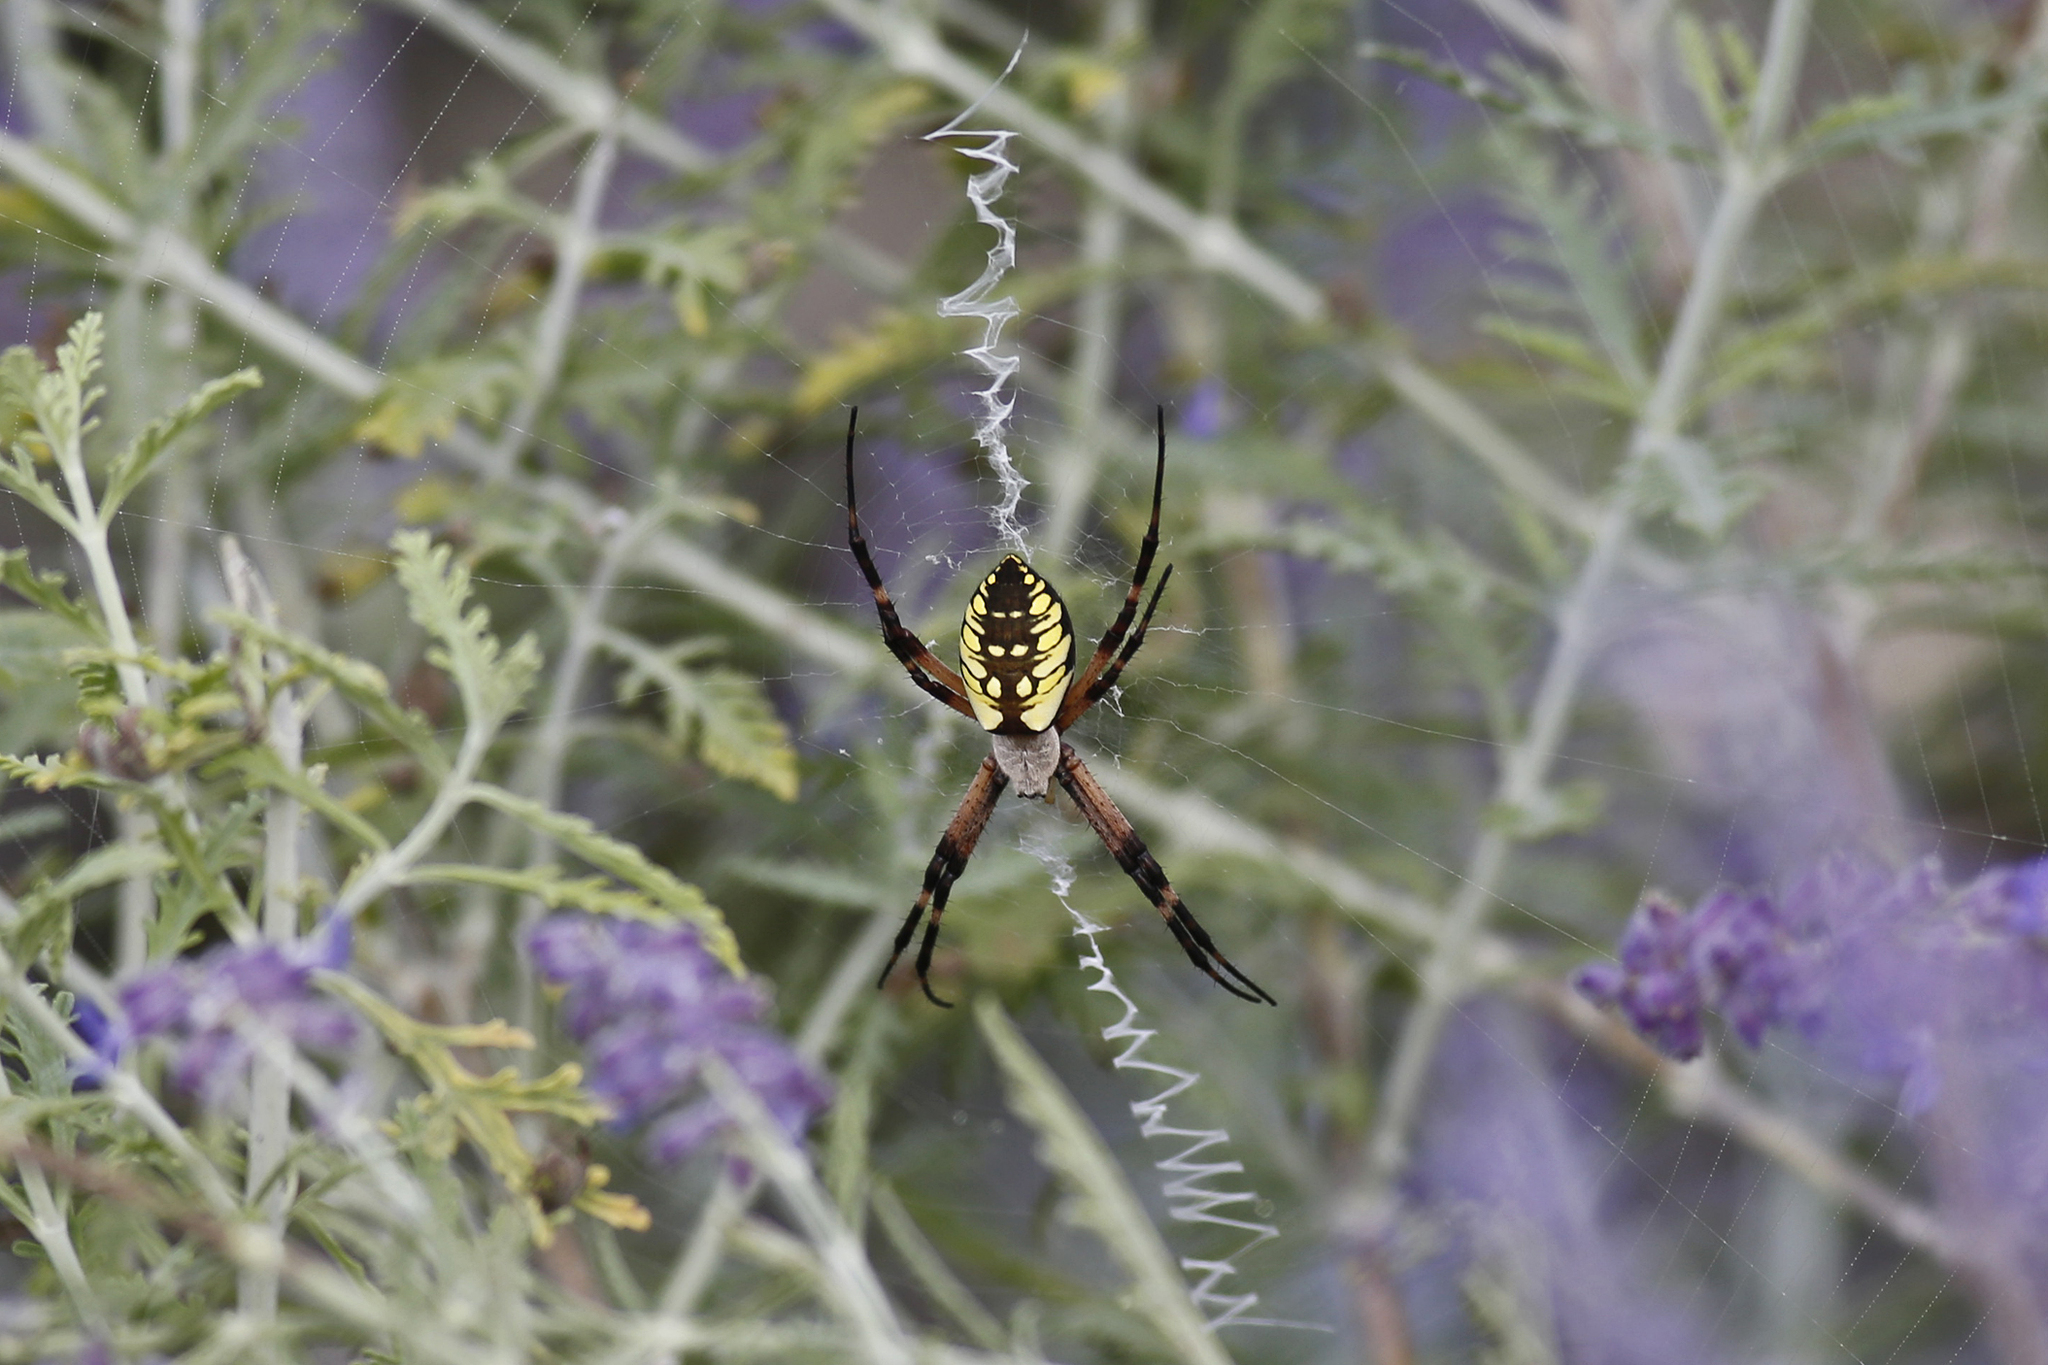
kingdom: Animalia
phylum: Arthropoda
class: Arachnida
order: Araneae
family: Araneidae
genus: Argiope
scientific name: Argiope aurantia
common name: Orb weavers
